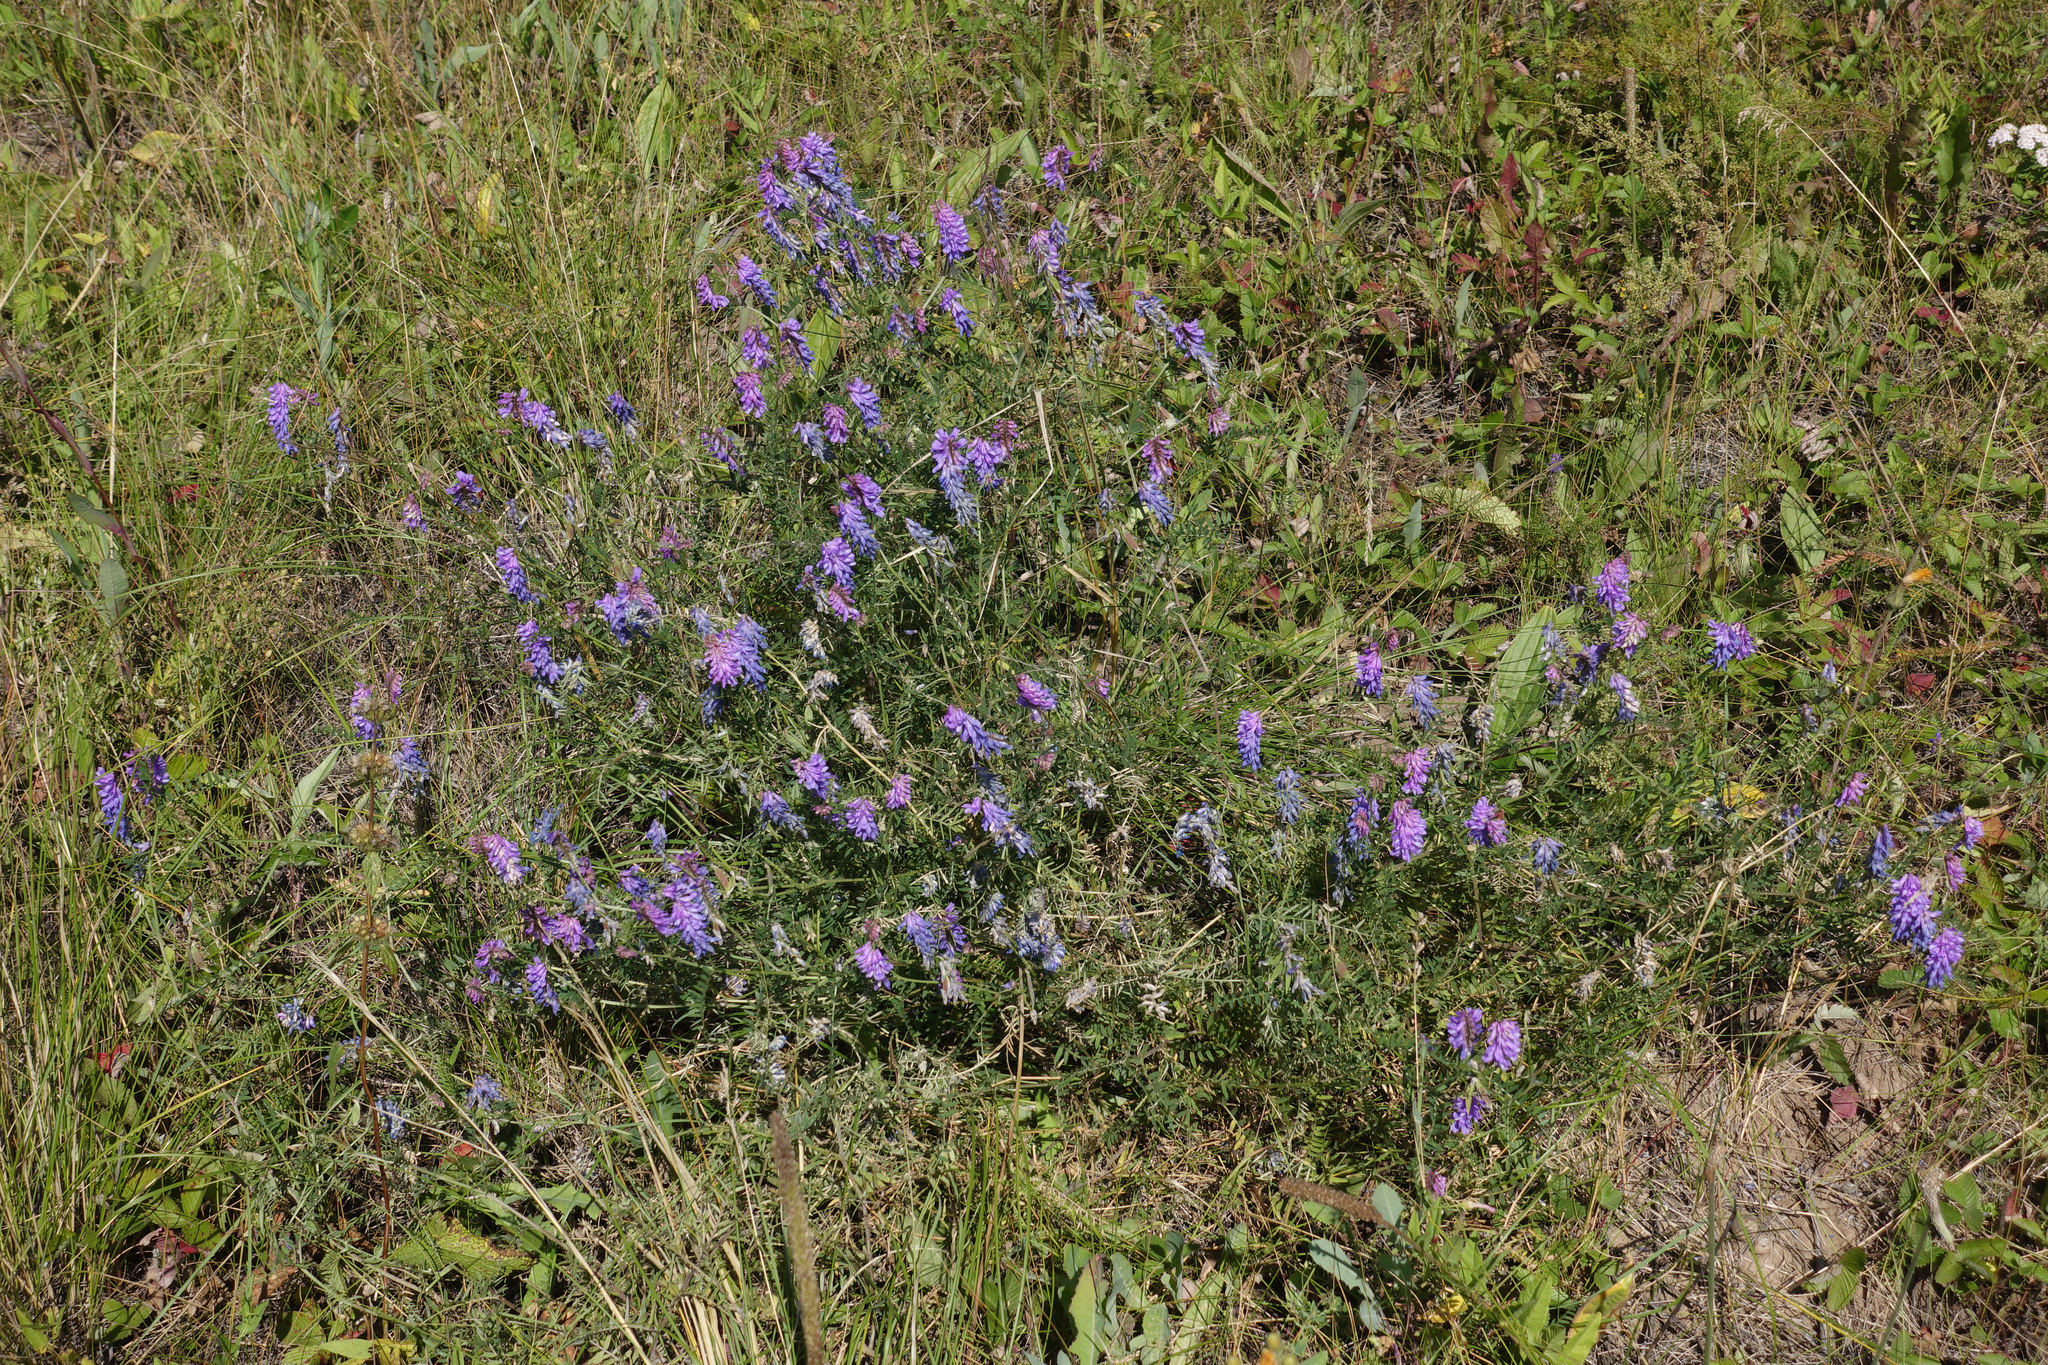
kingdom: Plantae
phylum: Tracheophyta
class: Magnoliopsida
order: Fabales
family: Fabaceae
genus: Vicia
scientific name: Vicia cracca
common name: Bird vetch
